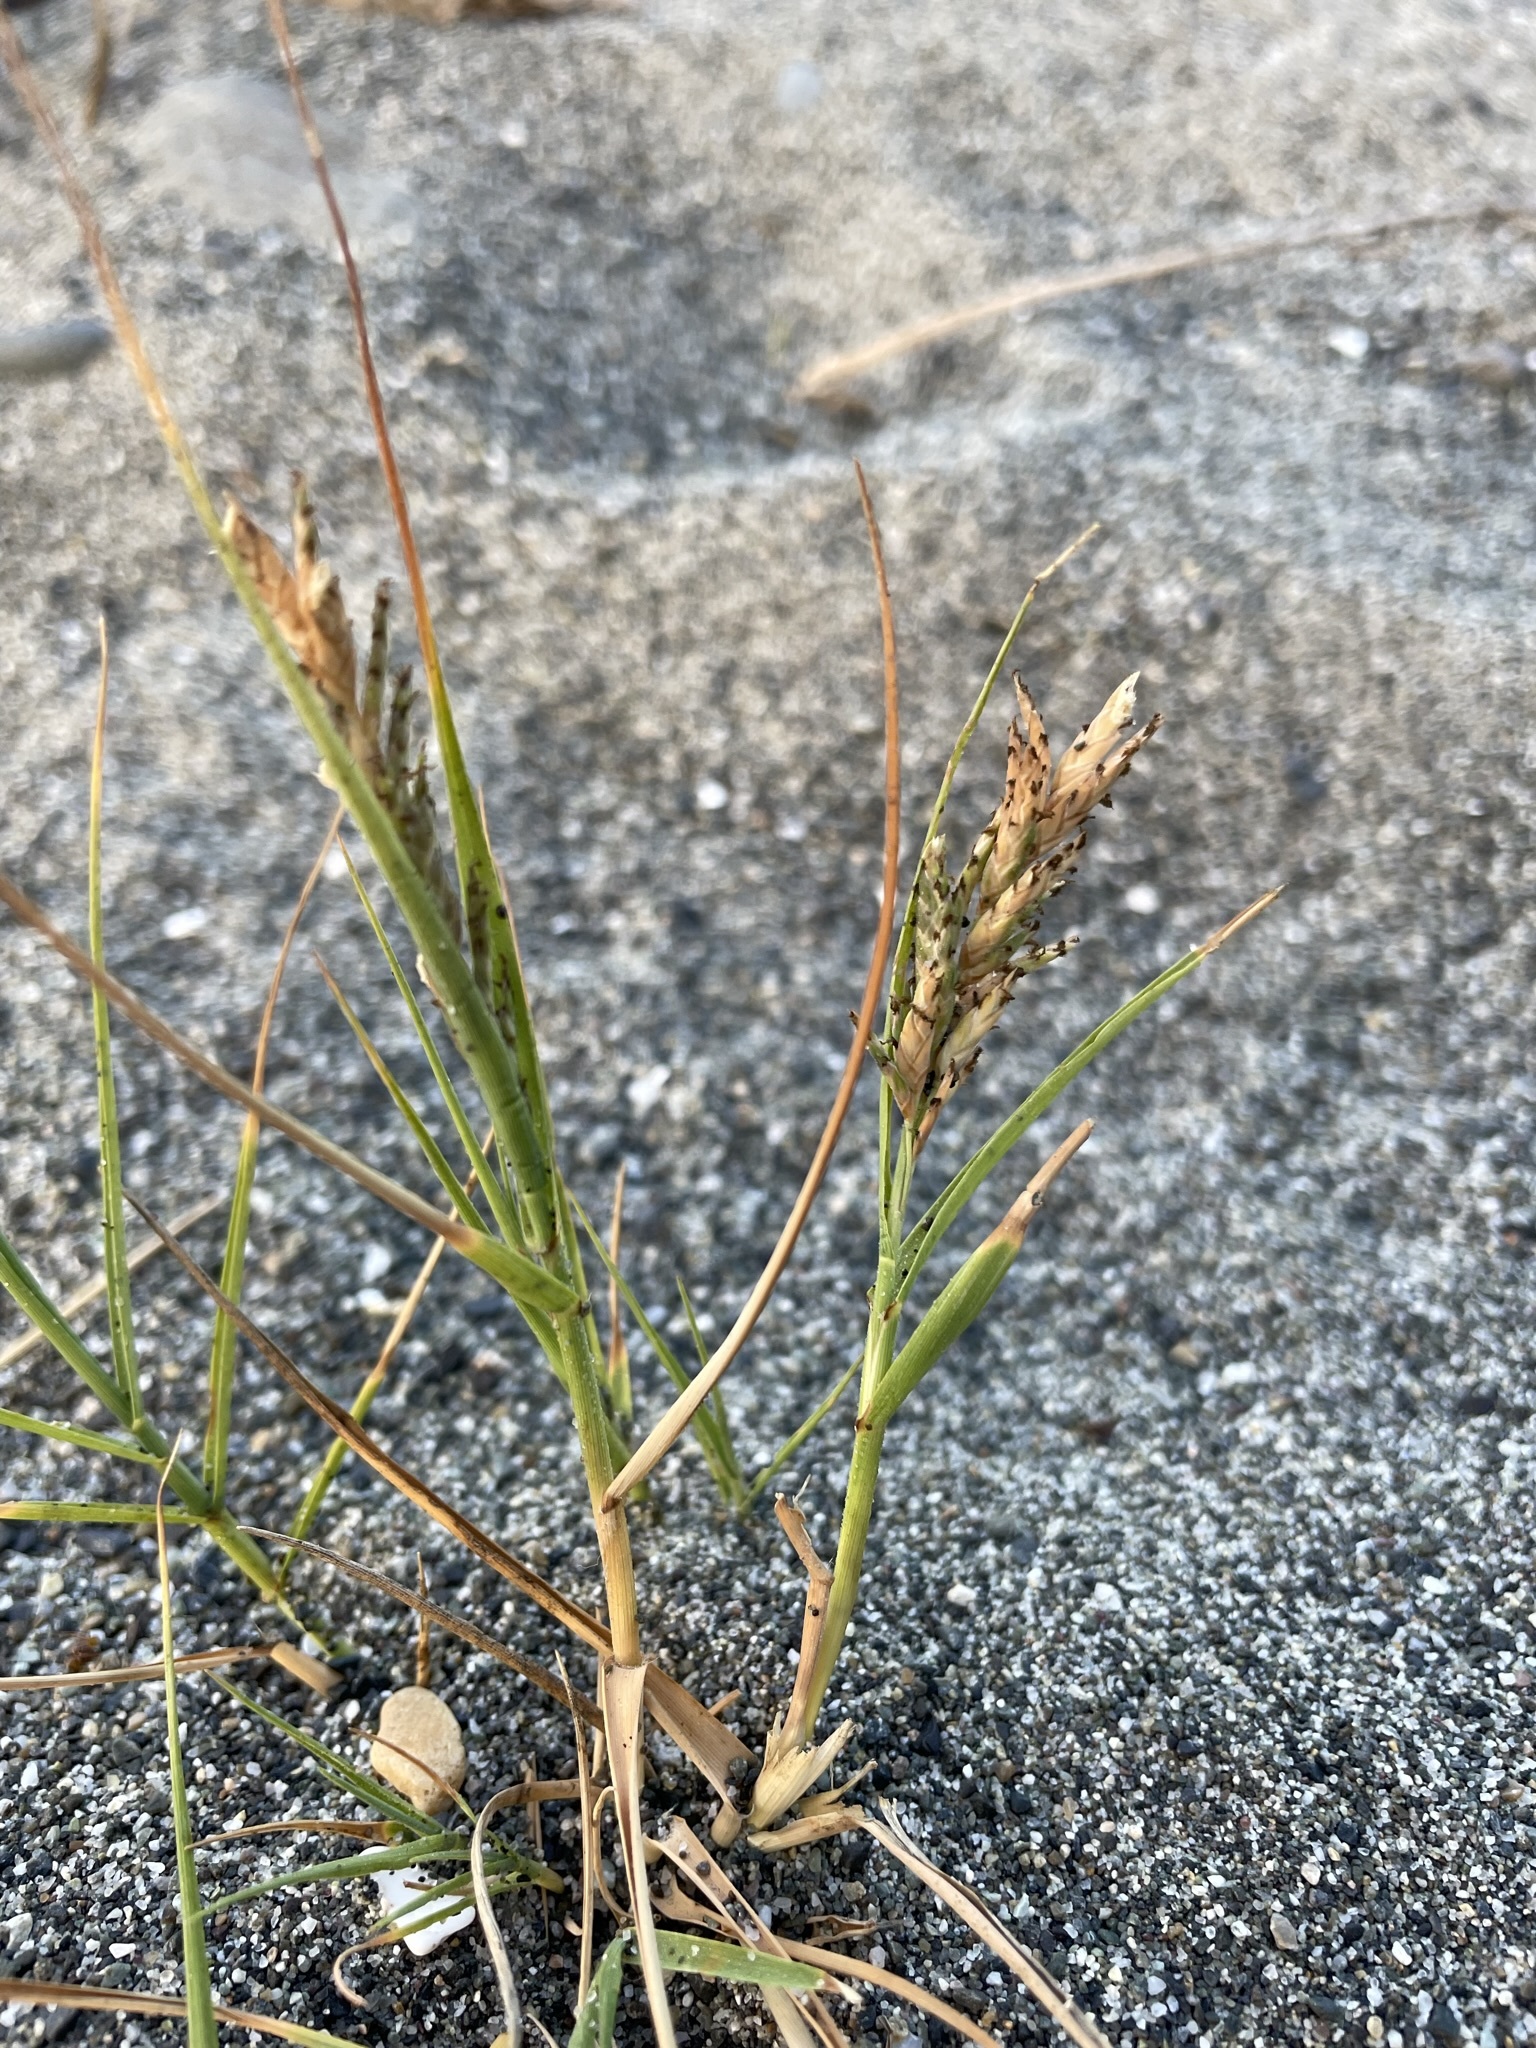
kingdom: Plantae
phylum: Tracheophyta
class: Liliopsida
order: Poales
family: Poaceae
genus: Distichlis
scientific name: Distichlis spicata
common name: Saltgrass
